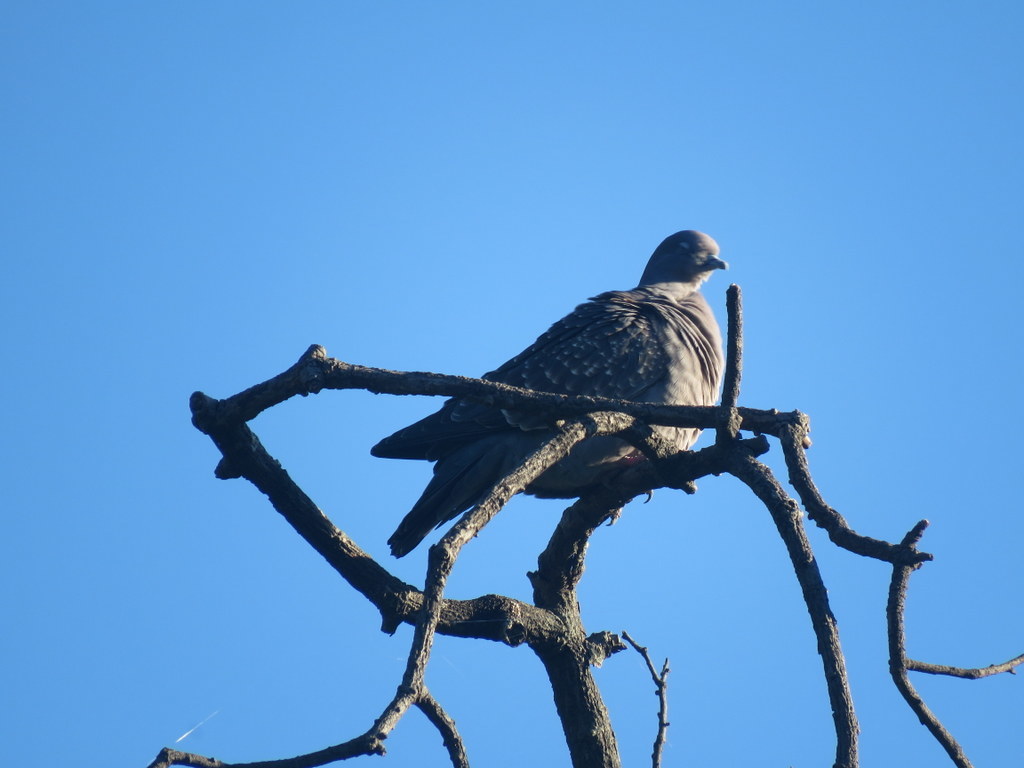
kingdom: Animalia
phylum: Chordata
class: Aves
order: Columbiformes
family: Columbidae
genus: Patagioenas
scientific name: Patagioenas maculosa
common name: Spot-winged pigeon
